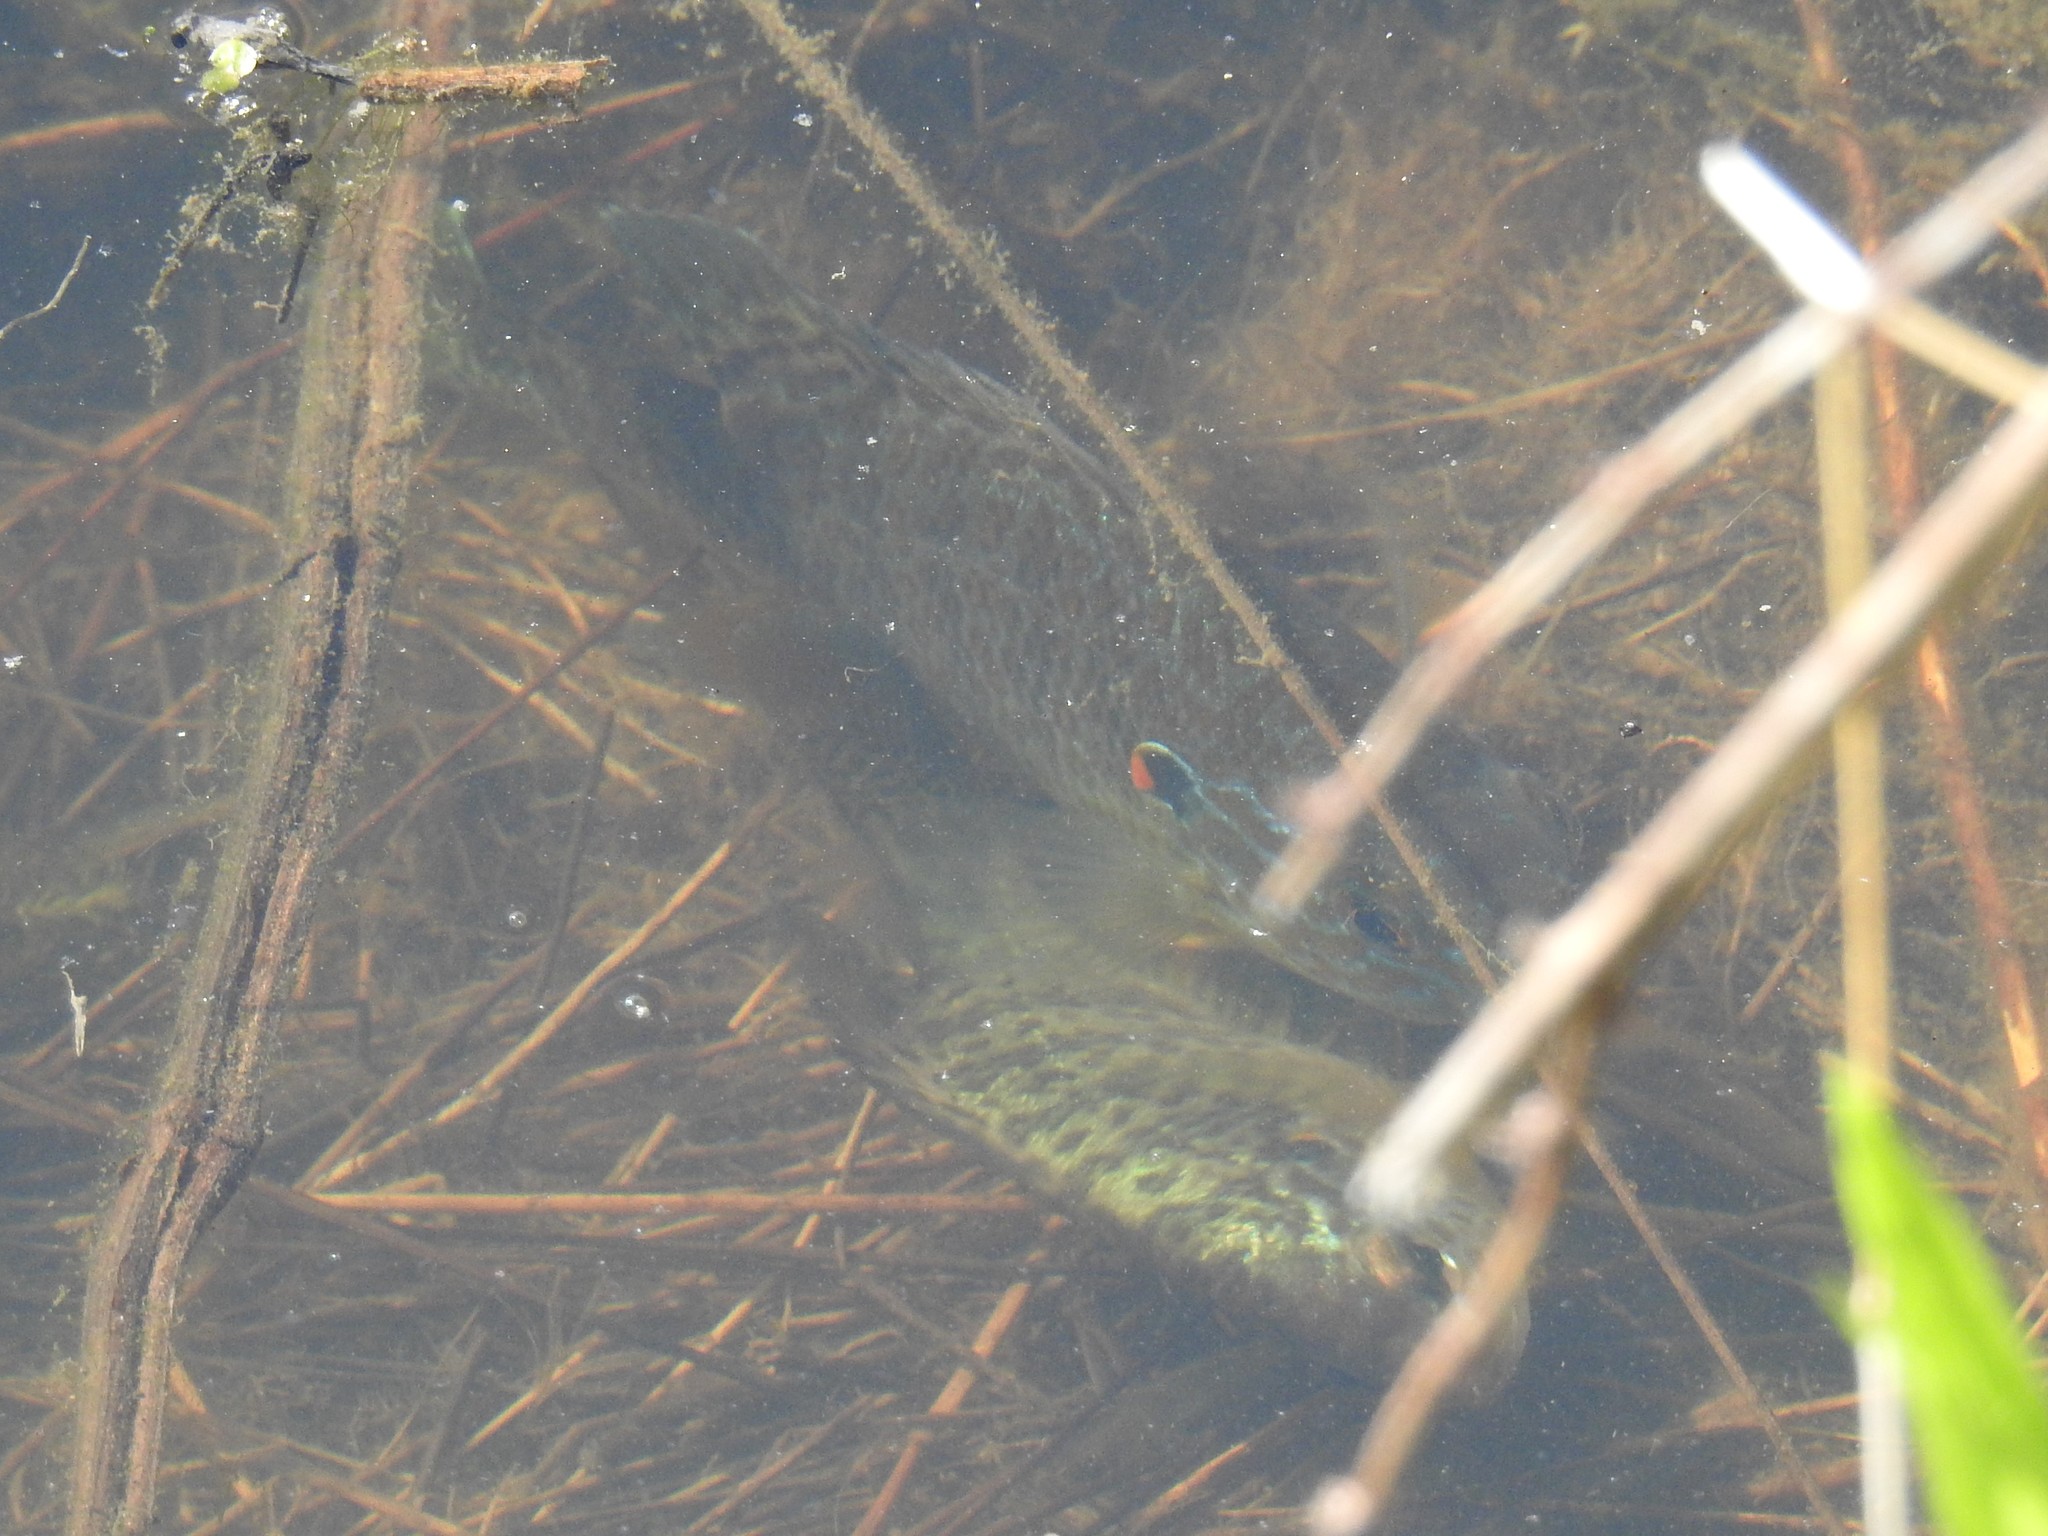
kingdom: Animalia
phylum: Chordata
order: Perciformes
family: Centrarchidae
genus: Lepomis
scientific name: Lepomis gibbosus
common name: Pumpkinseed
